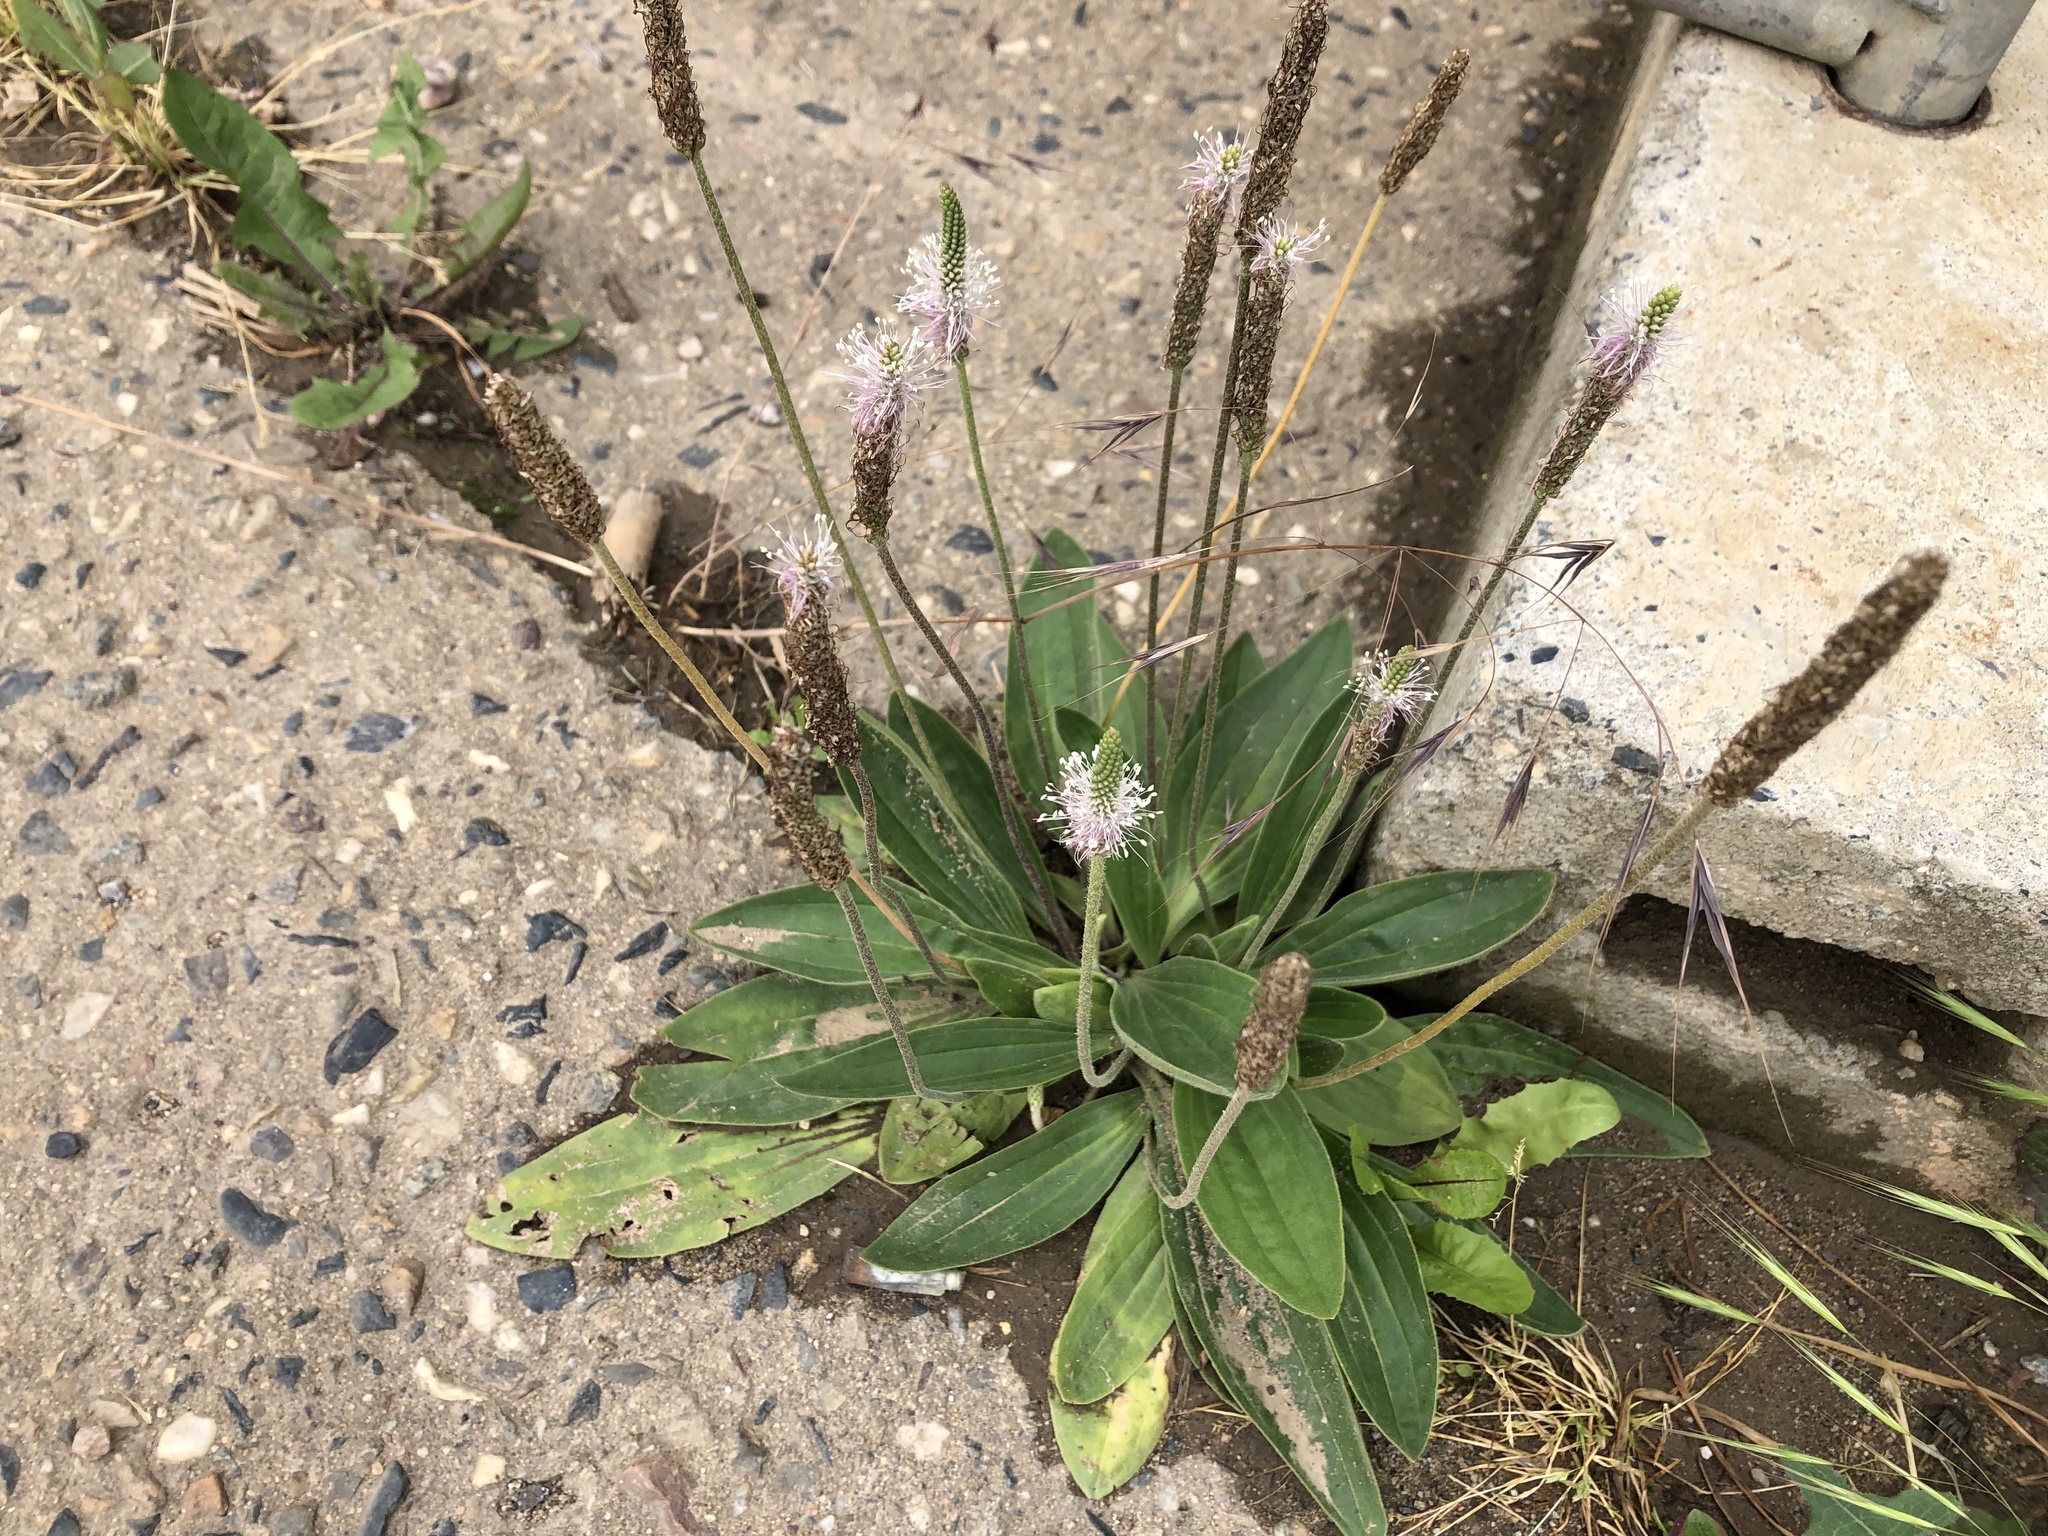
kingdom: Plantae
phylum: Tracheophyta
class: Magnoliopsida
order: Lamiales
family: Plantaginaceae
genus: Plantago
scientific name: Plantago media
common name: Hoary plantain
